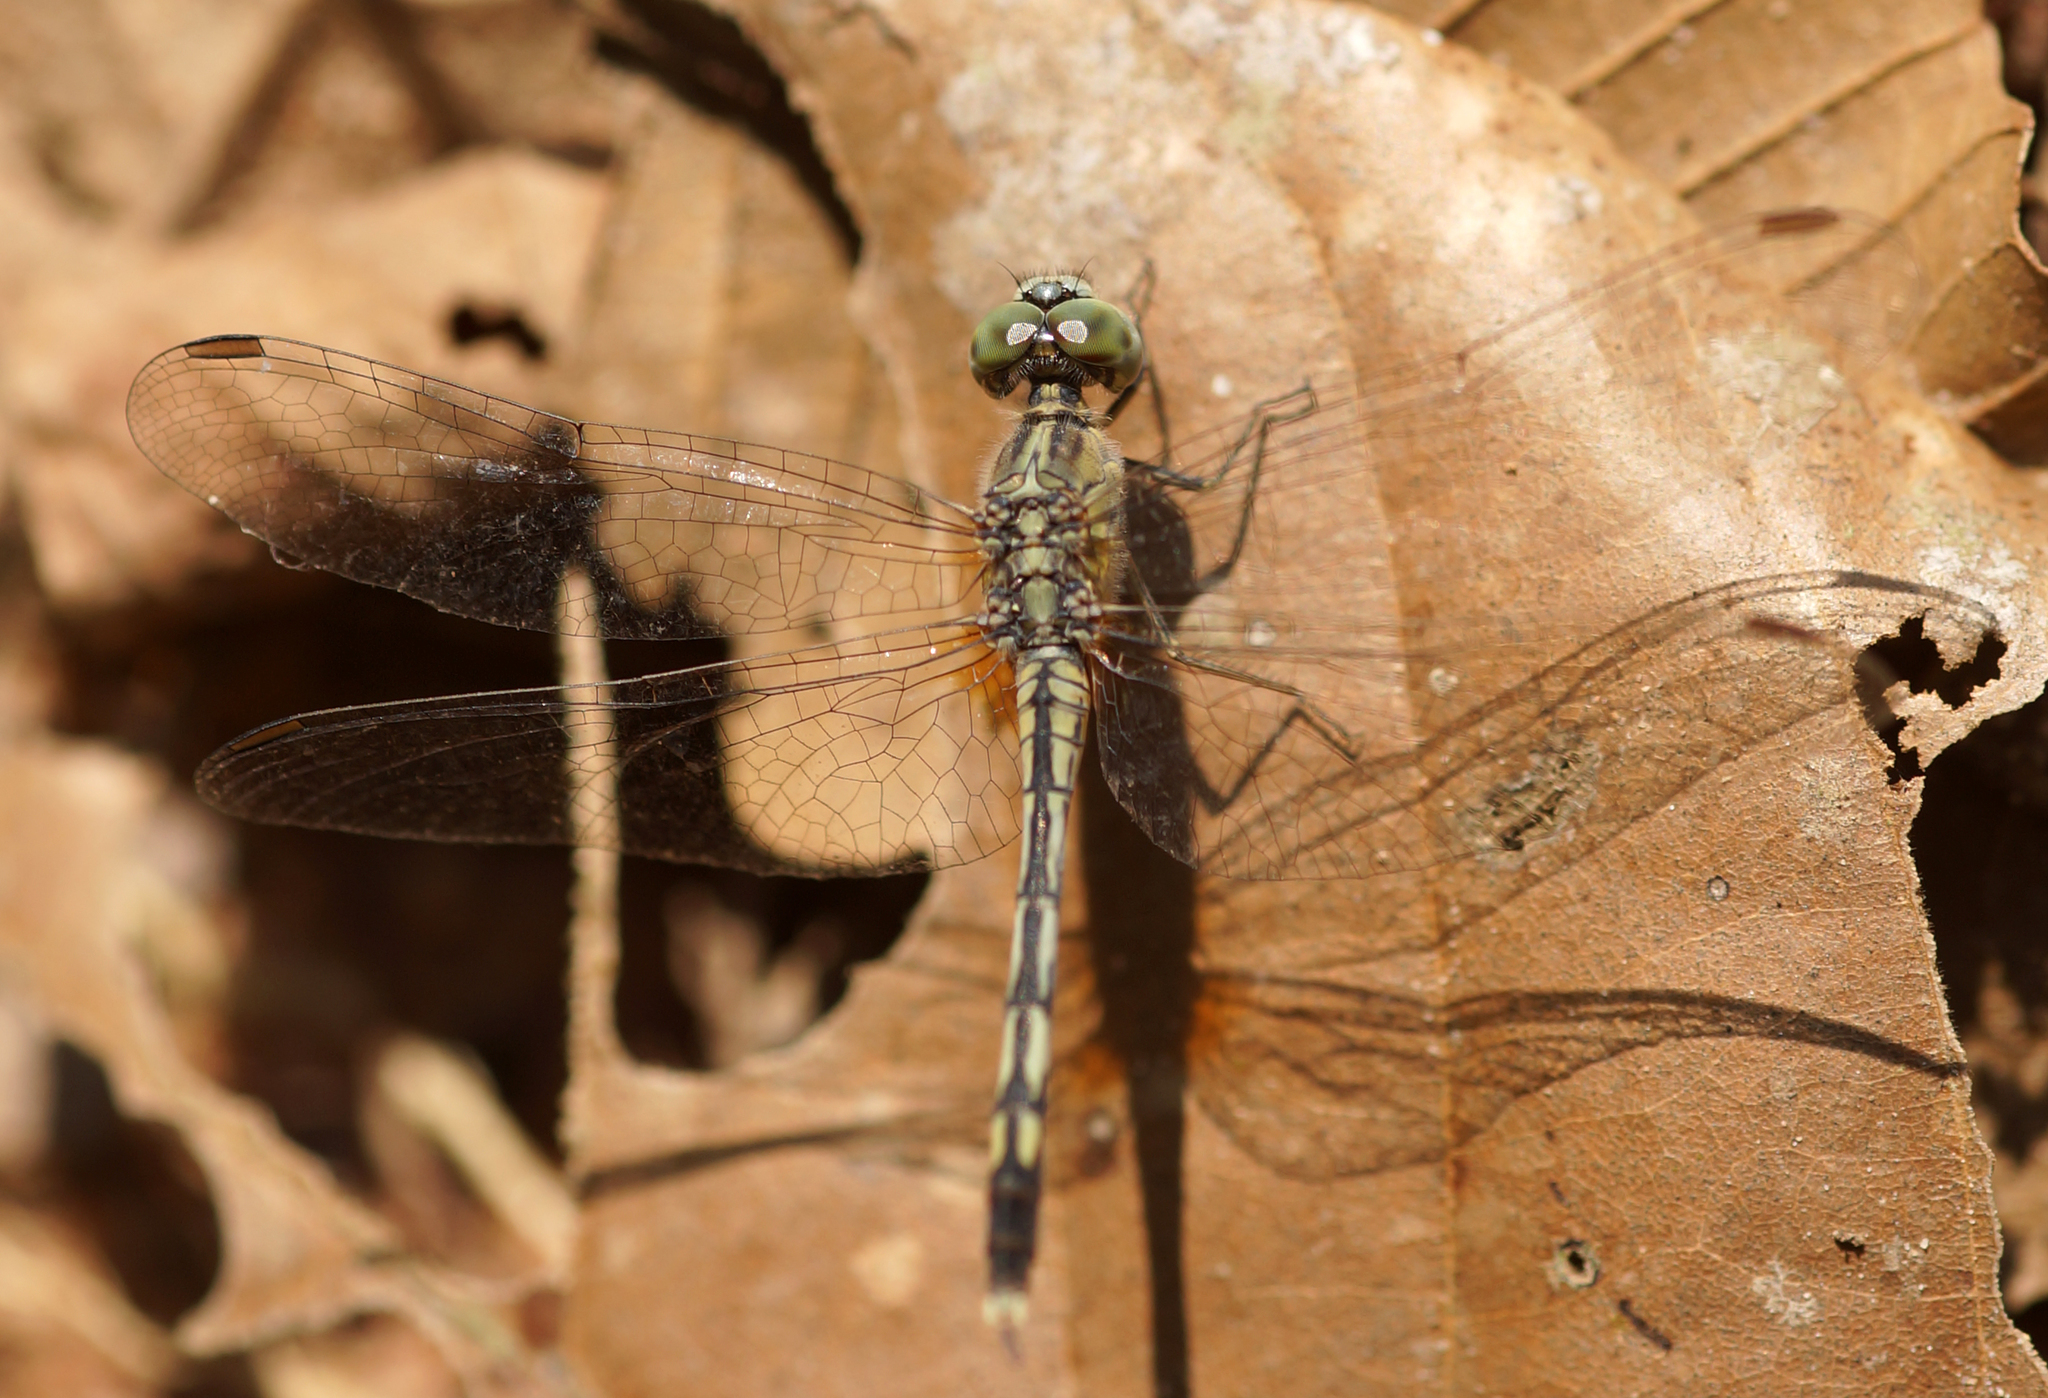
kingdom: Animalia
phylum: Arthropoda
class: Insecta
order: Odonata
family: Libellulidae
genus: Diplacodes
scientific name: Diplacodes trivialis
